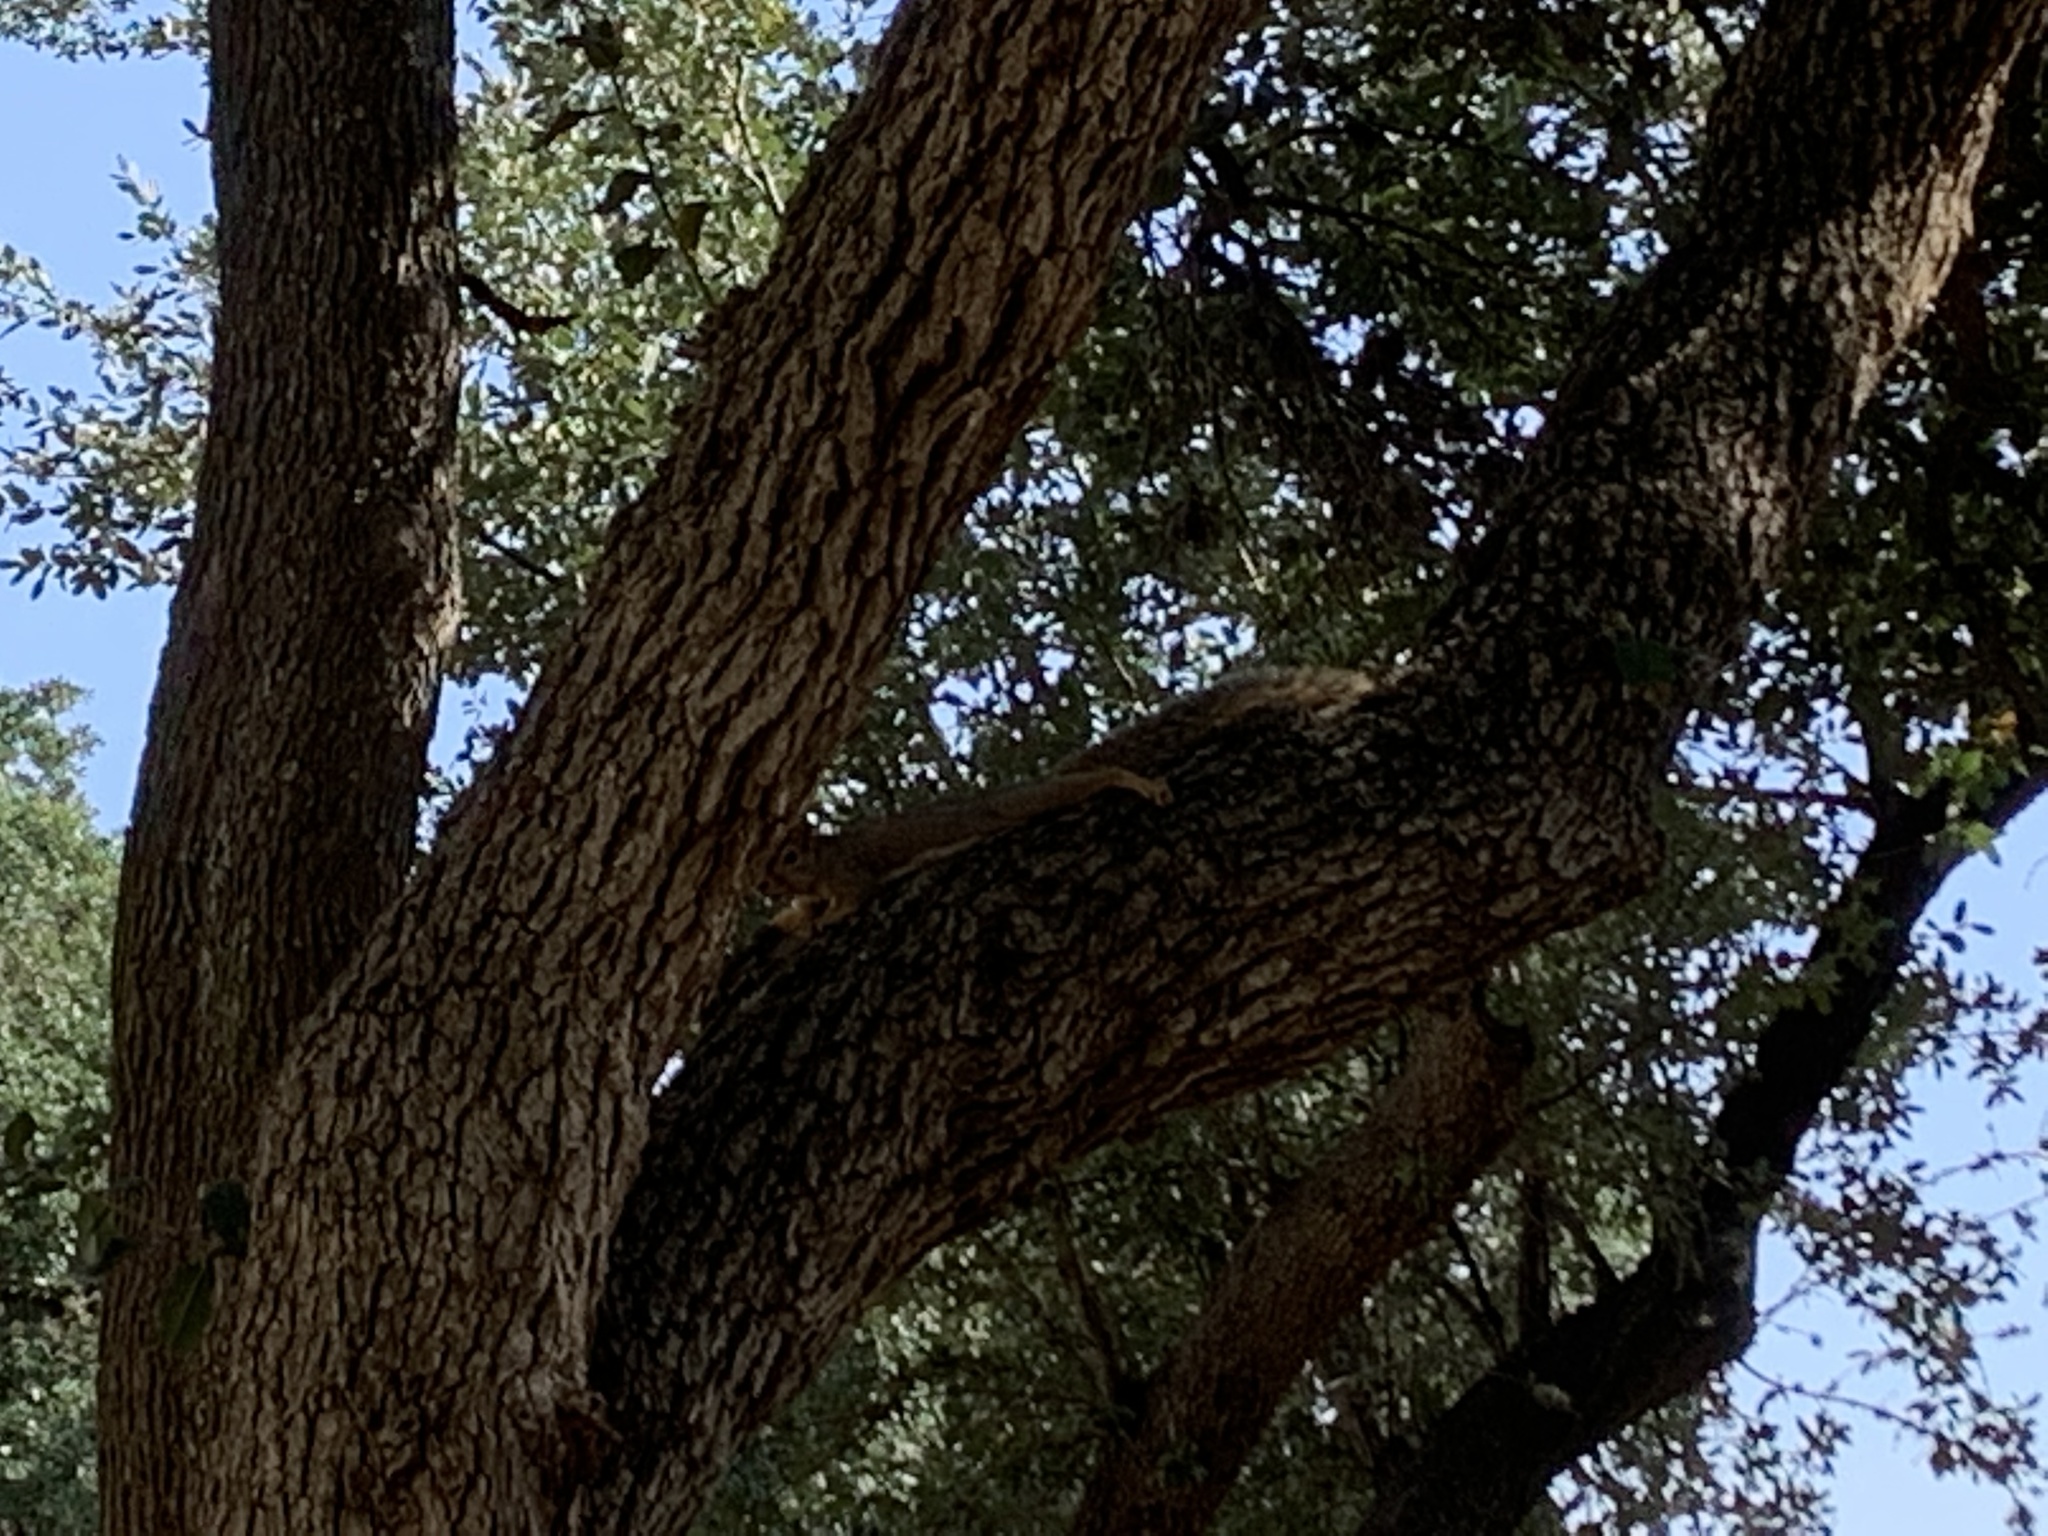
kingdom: Animalia
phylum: Chordata
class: Mammalia
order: Rodentia
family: Sciuridae
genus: Sciurus
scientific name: Sciurus niger
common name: Fox squirrel
